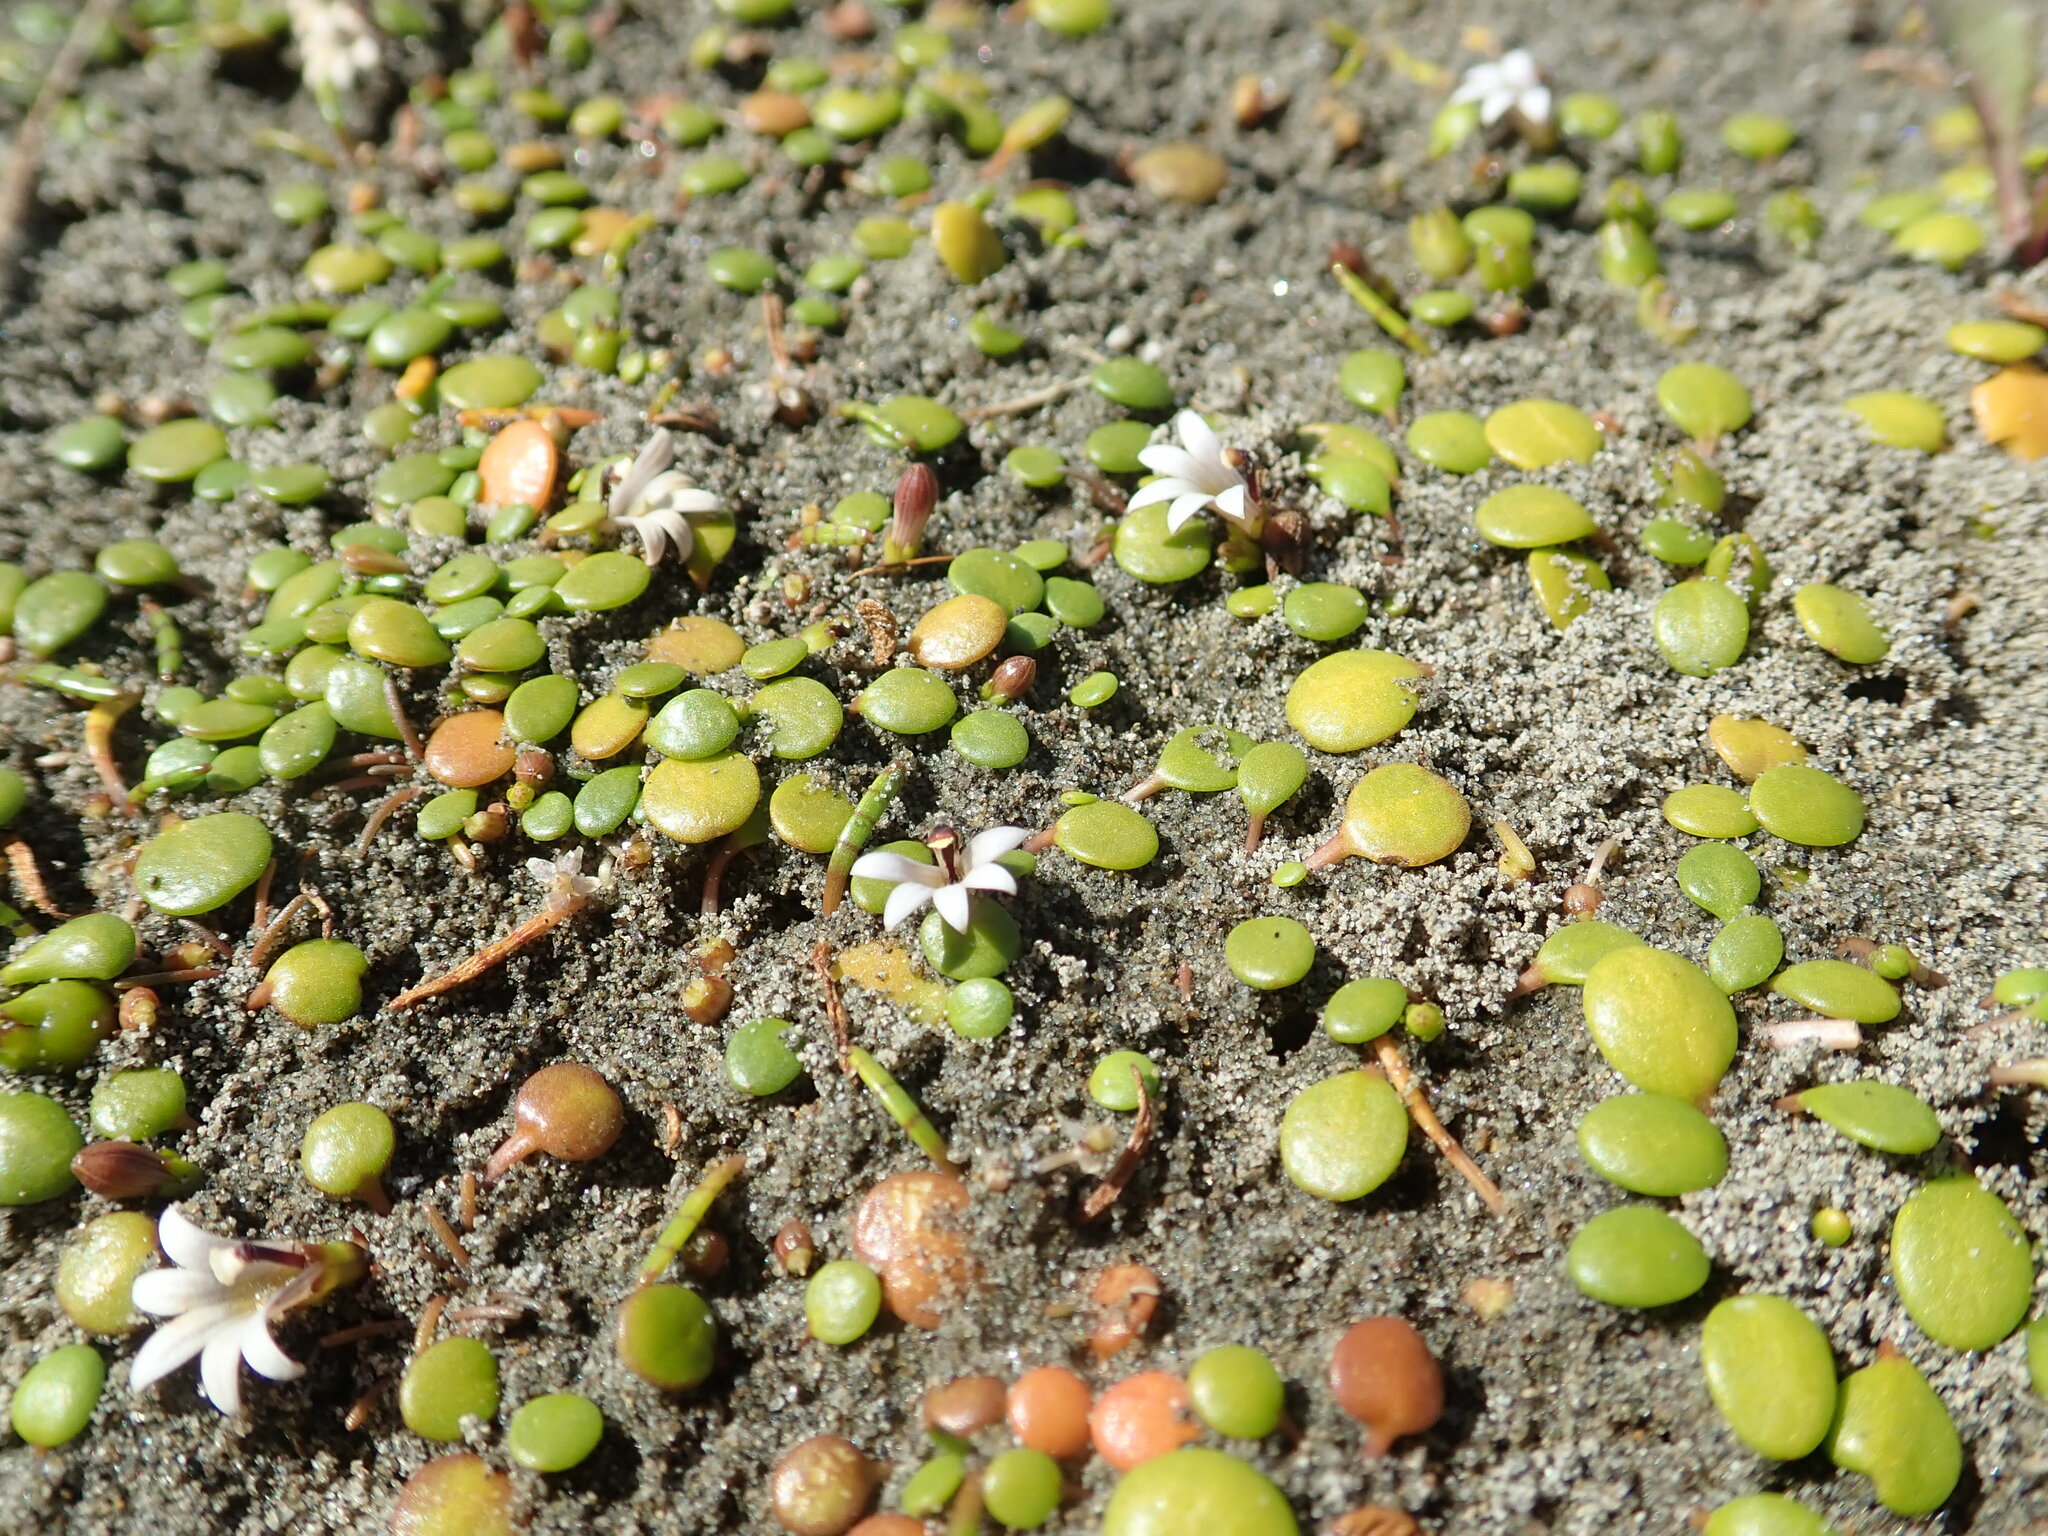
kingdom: Plantae
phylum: Tracheophyta
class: Magnoliopsida
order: Asterales
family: Goodeniaceae
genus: Goodenia
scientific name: Goodenia heenanii
